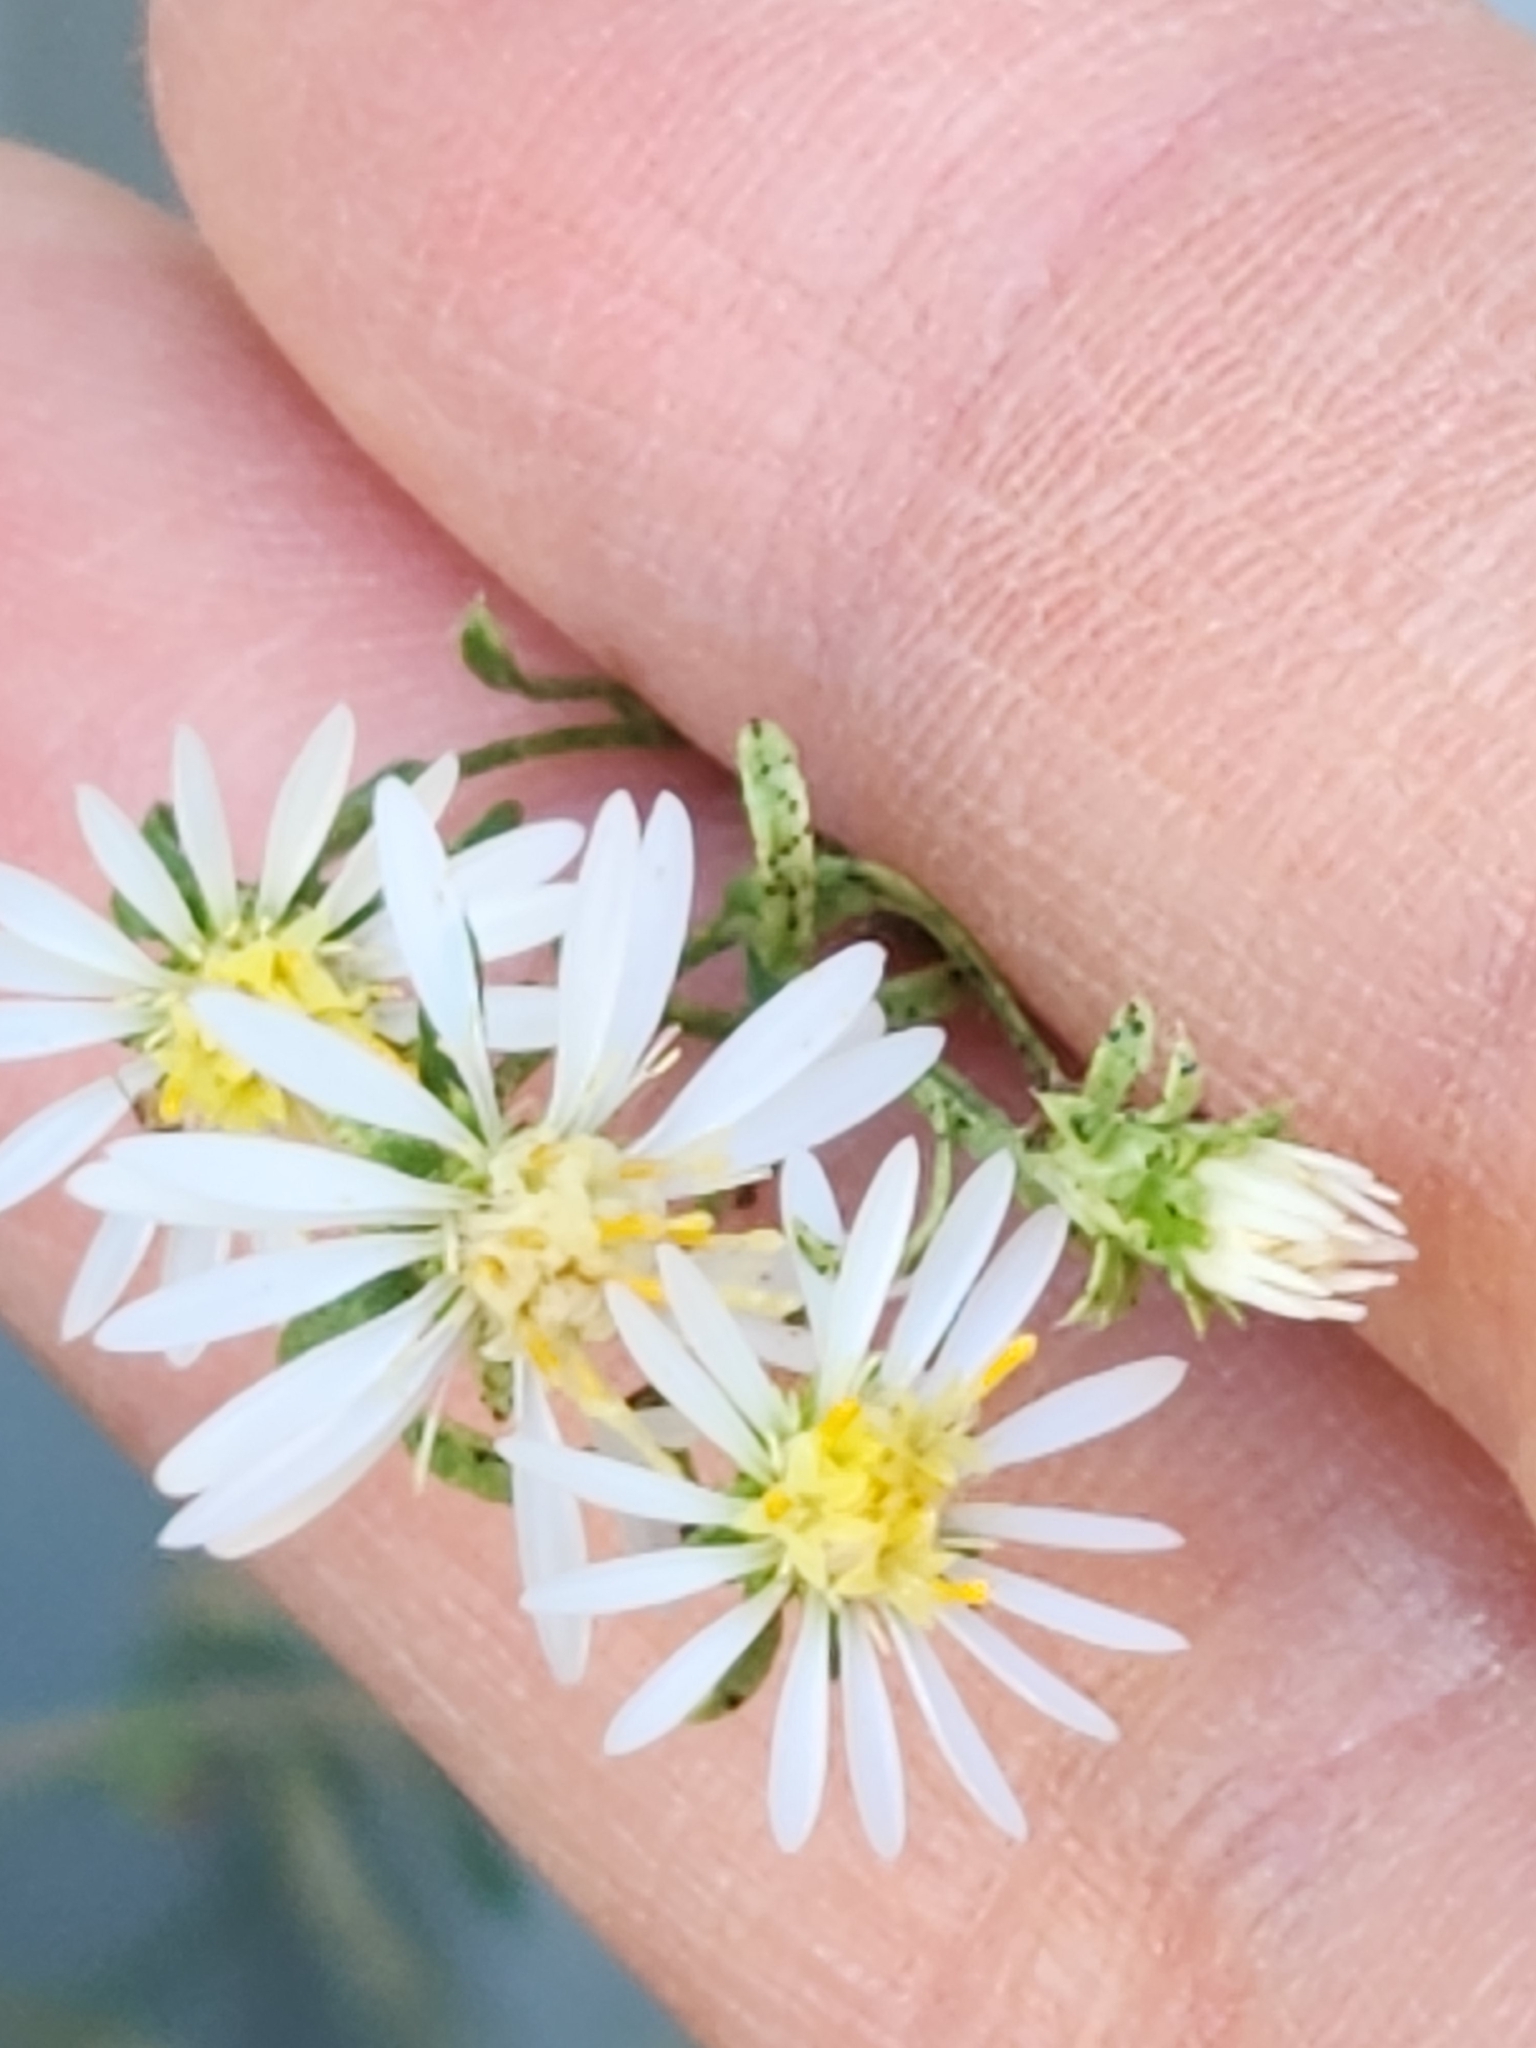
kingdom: Plantae
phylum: Tracheophyta
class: Magnoliopsida
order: Asterales
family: Asteraceae
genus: Symphyotrichum
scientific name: Symphyotrichum ericoides
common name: Heath aster
